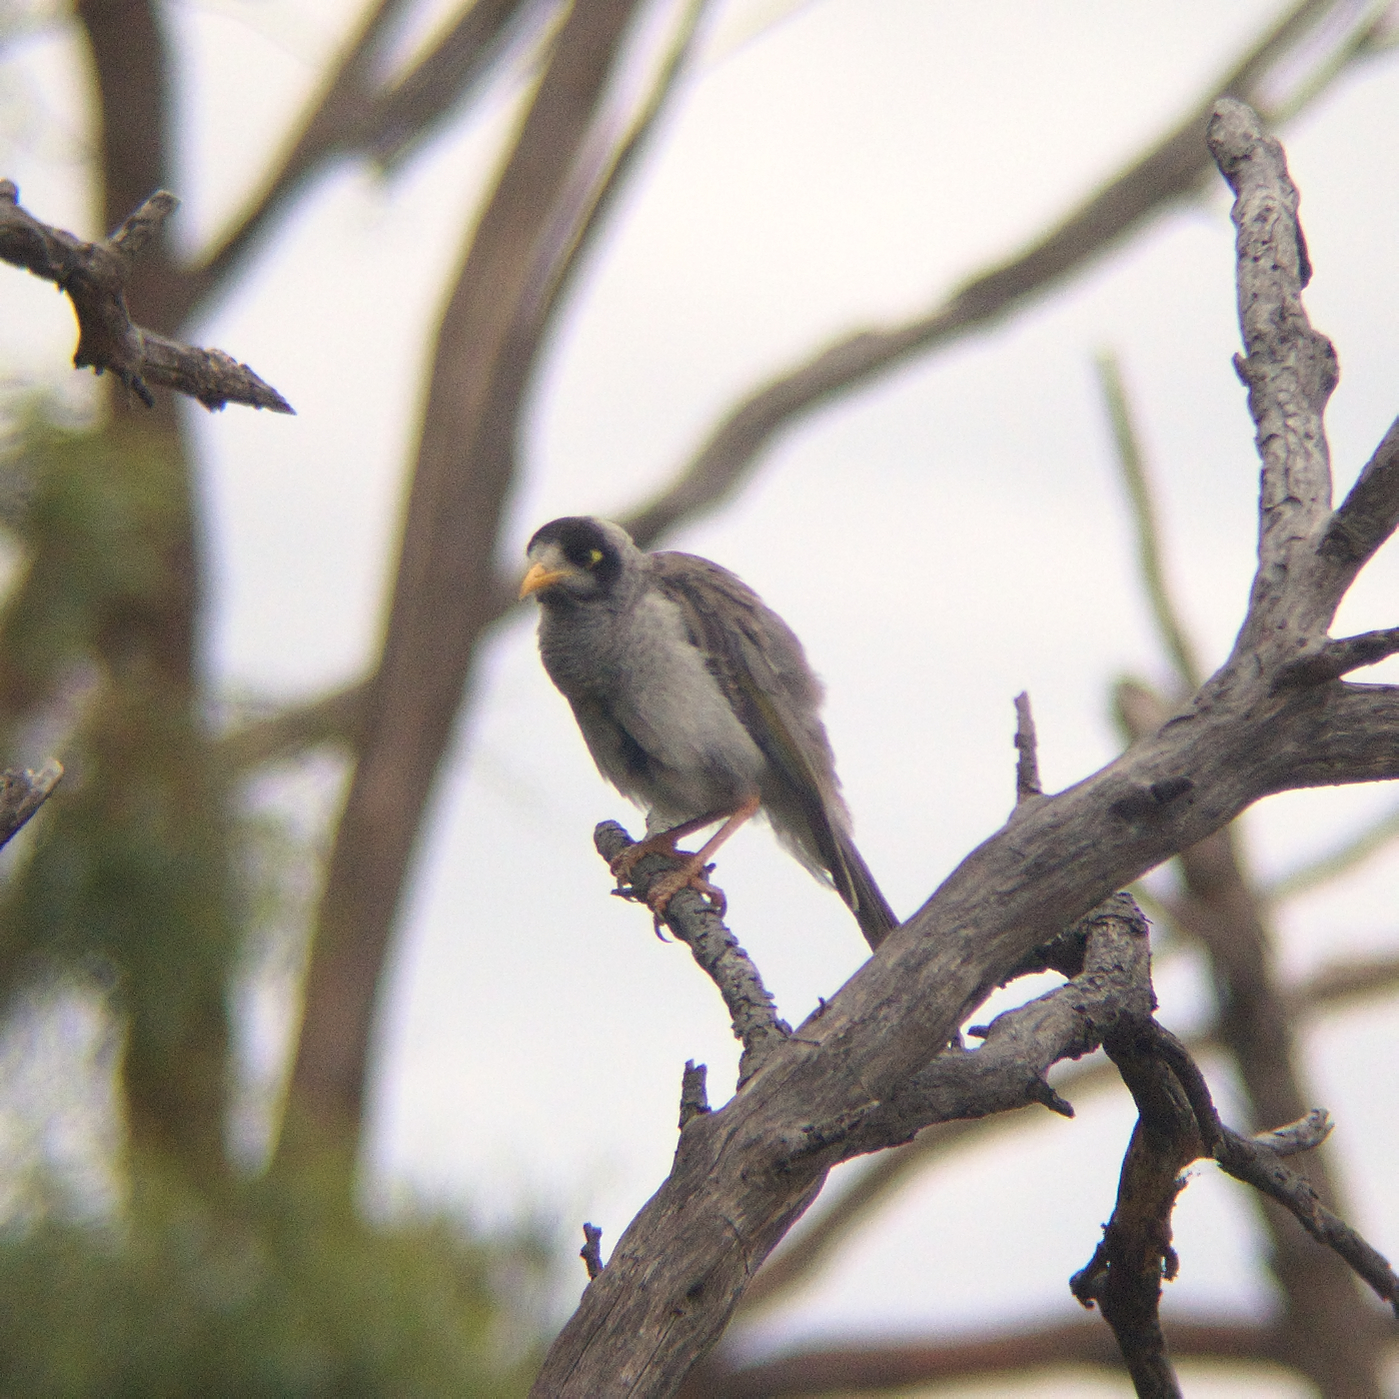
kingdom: Animalia
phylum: Chordata
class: Aves
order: Passeriformes
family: Meliphagidae
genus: Manorina
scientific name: Manorina melanocephala
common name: Noisy miner
